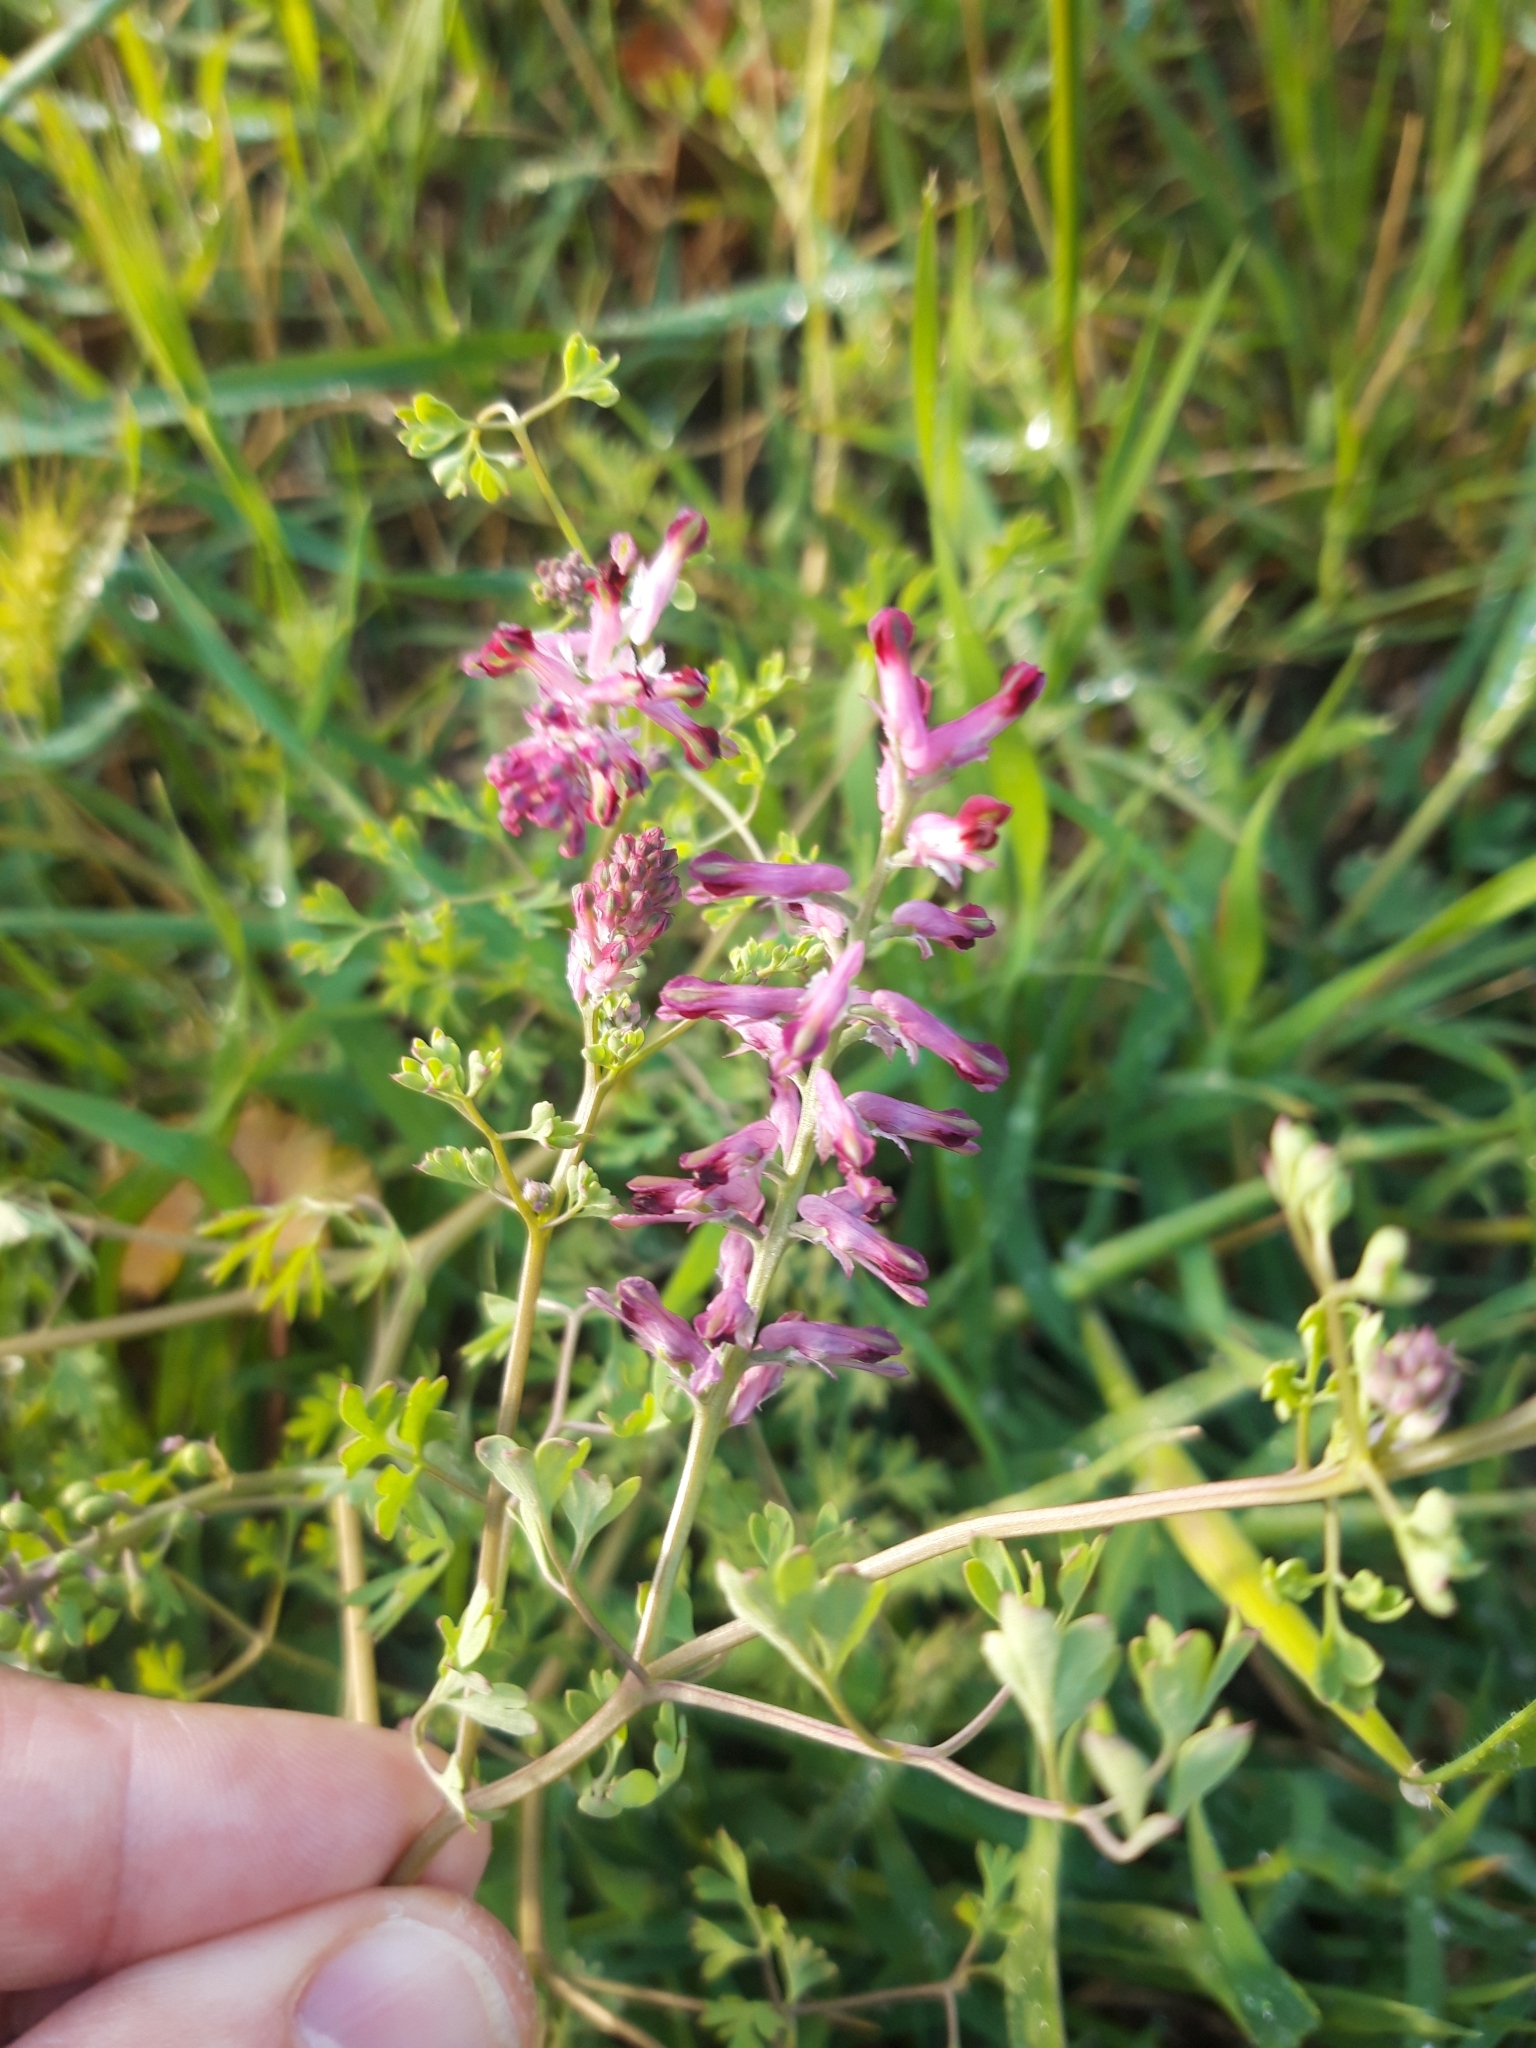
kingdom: Plantae
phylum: Tracheophyta
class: Magnoliopsida
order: Ranunculales
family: Papaveraceae
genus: Fumaria
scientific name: Fumaria officinalis
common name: Common fumitory
